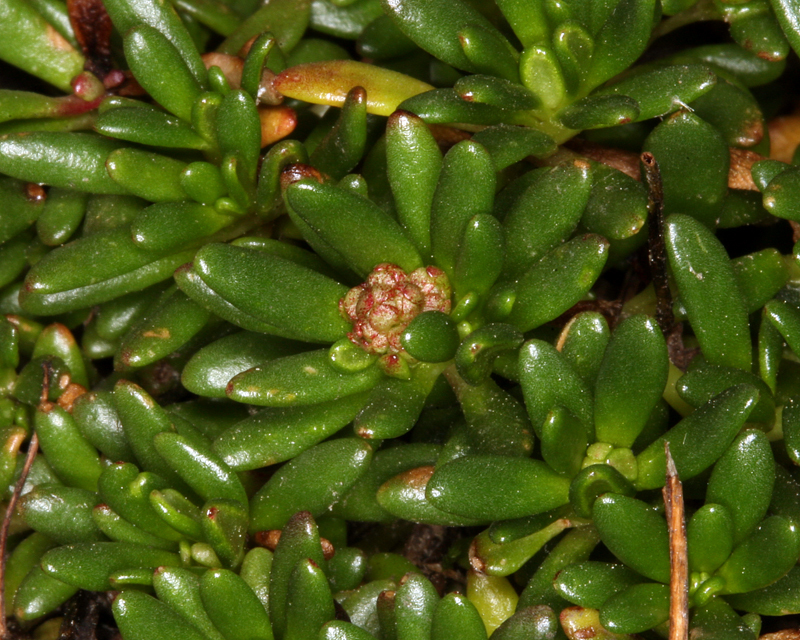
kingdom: Plantae
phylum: Tracheophyta
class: Magnoliopsida
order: Saxifragales
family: Saxifragaceae
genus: Micranthes
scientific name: Micranthes tolmiei
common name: Tolmie's saxifrage
